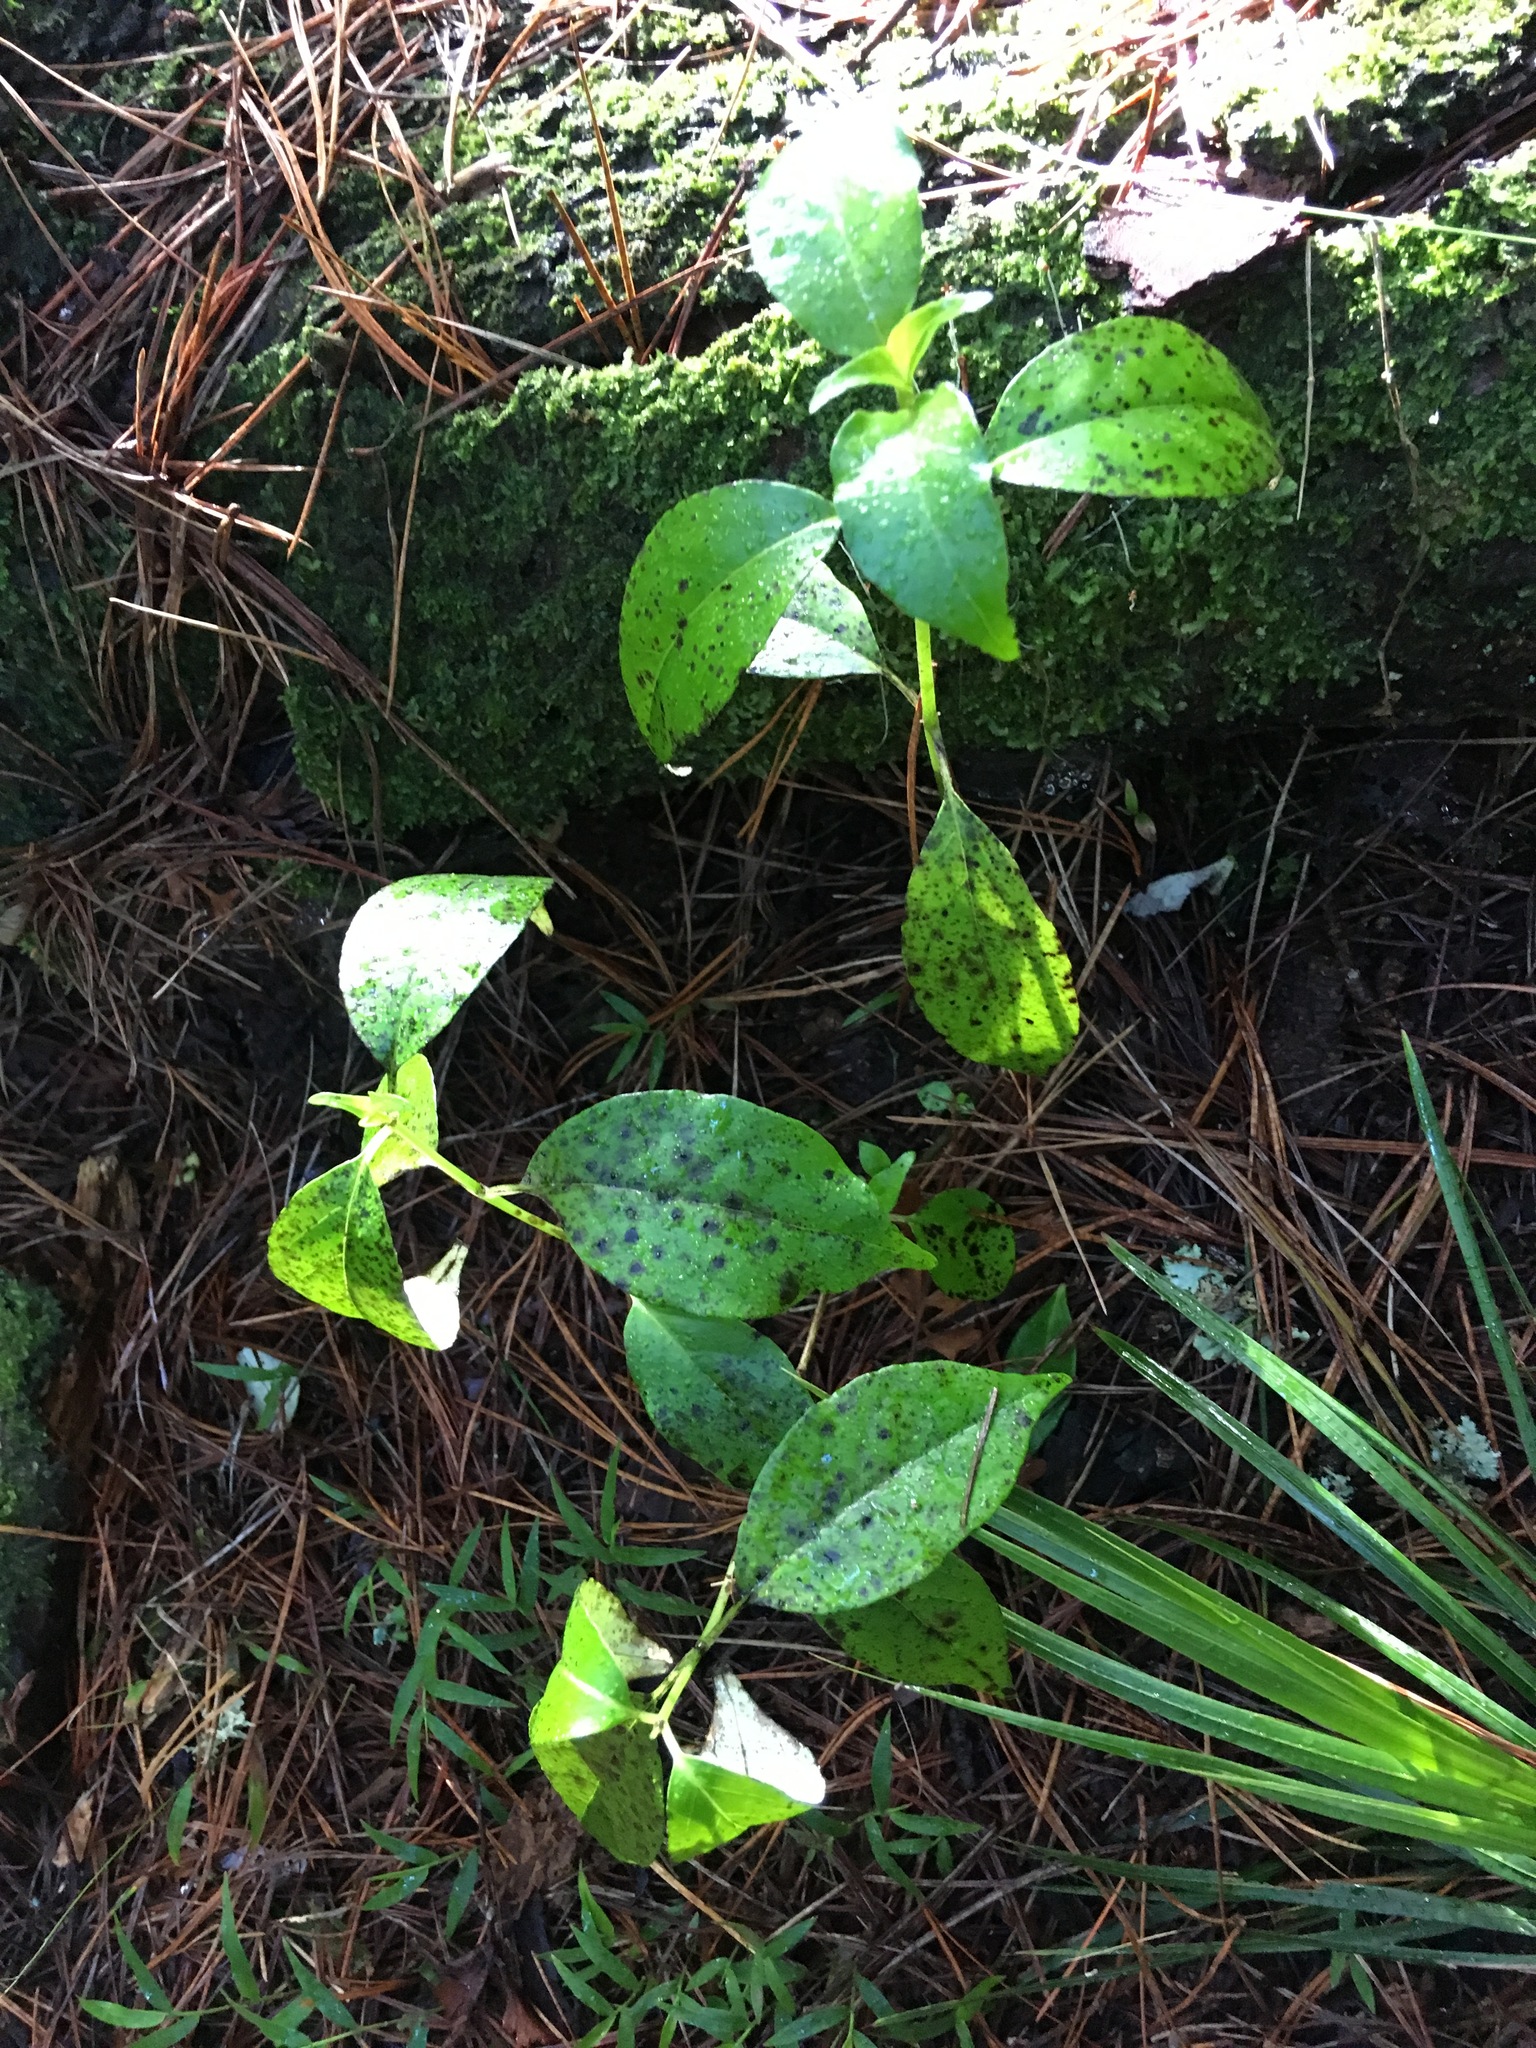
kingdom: Plantae
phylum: Tracheophyta
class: Magnoliopsida
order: Gentianales
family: Loganiaceae
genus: Geniostoma
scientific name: Geniostoma ligustrifolium
